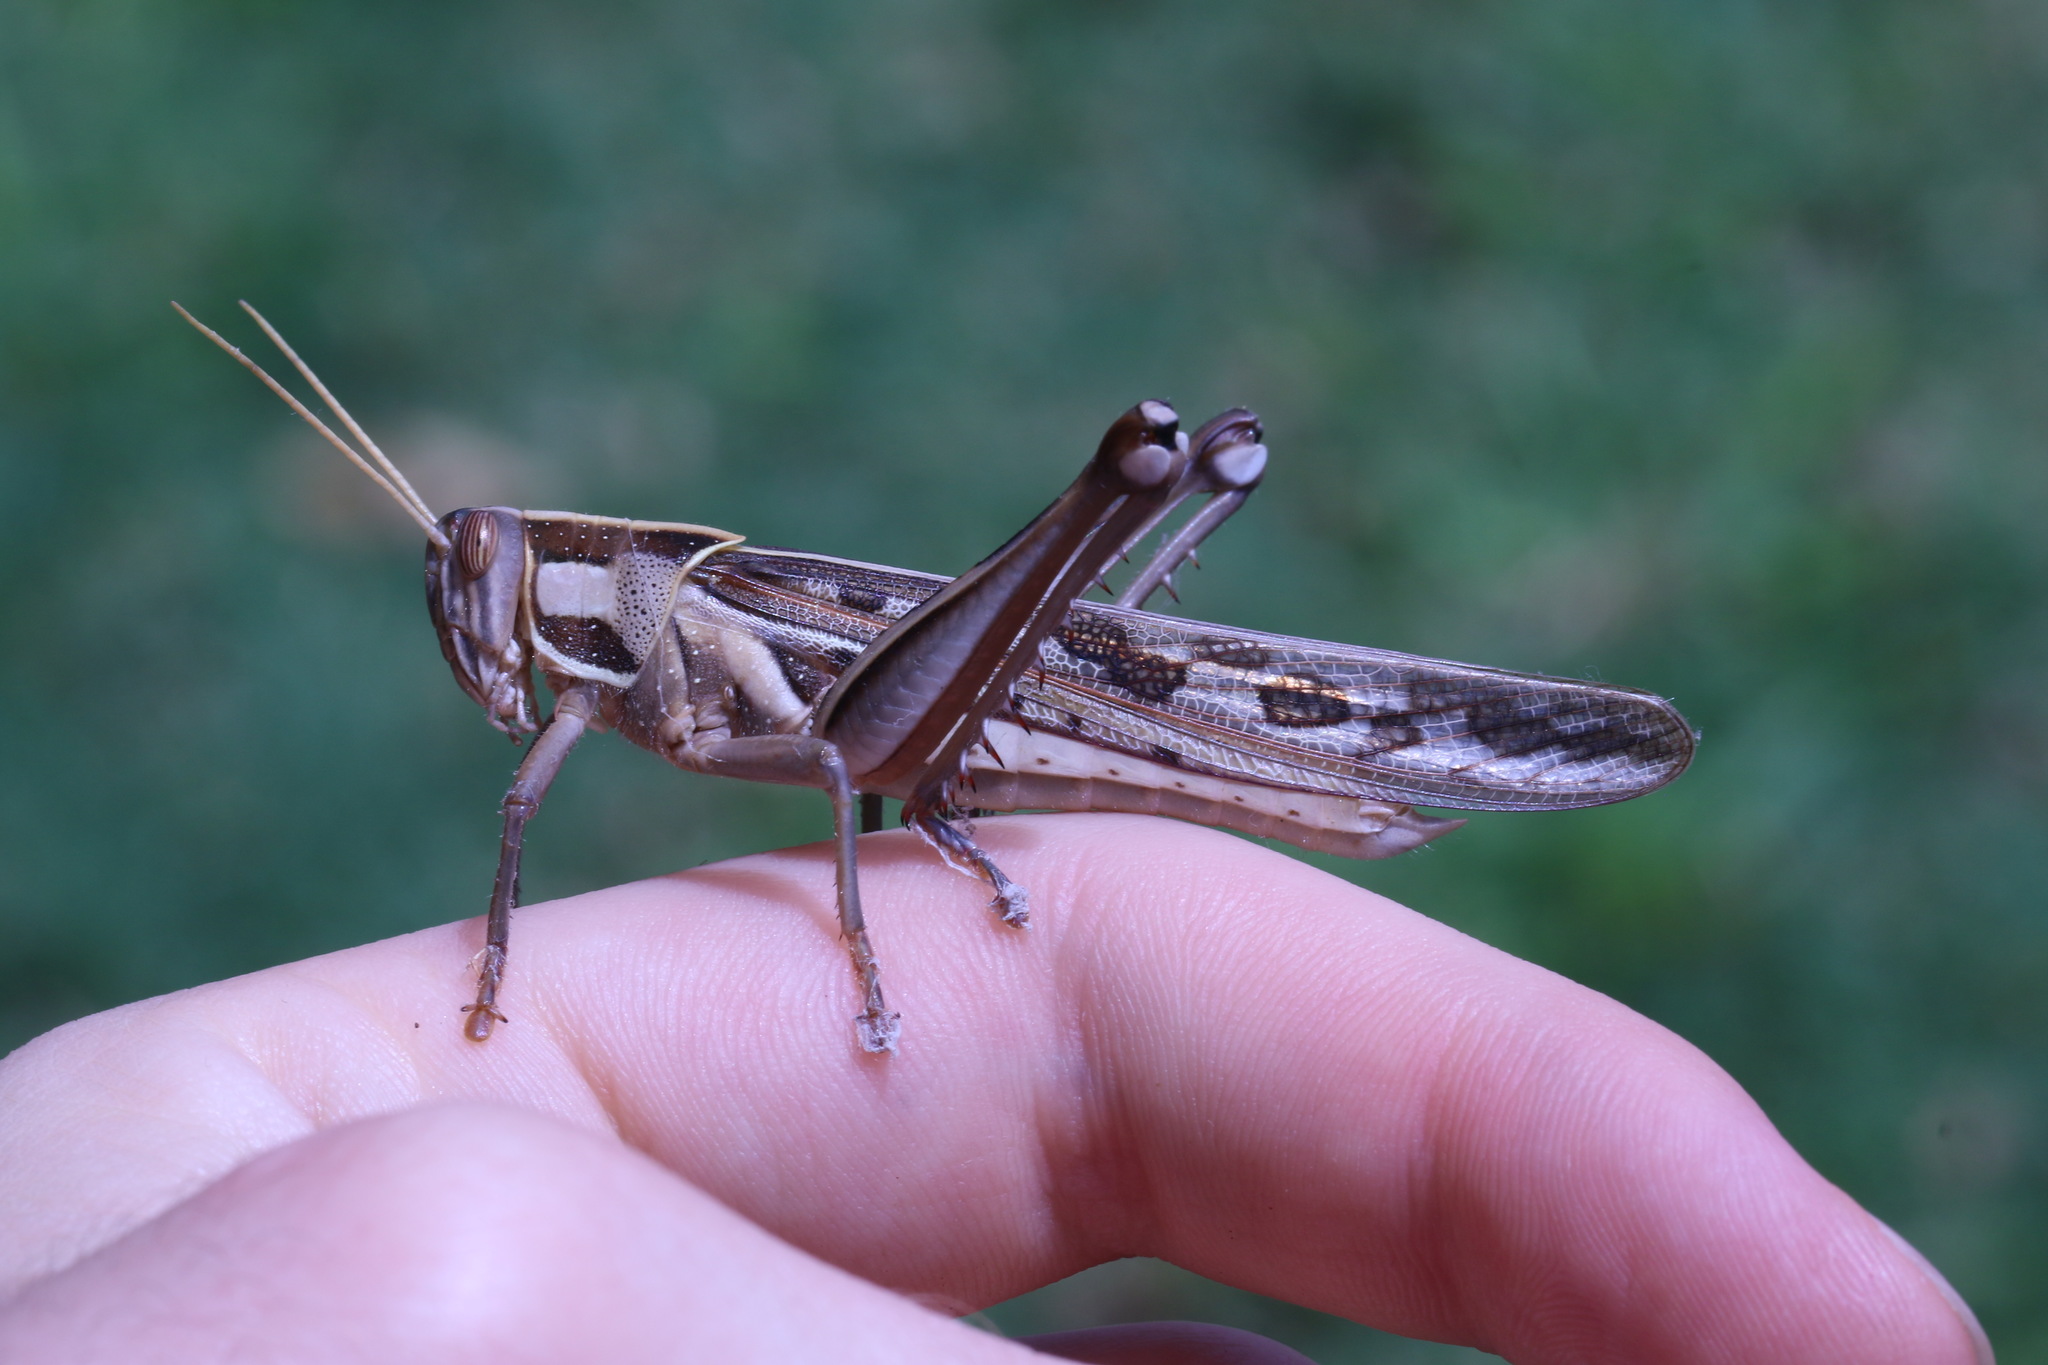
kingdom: Animalia
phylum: Arthropoda
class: Insecta
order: Orthoptera
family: Acrididae
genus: Cyrtacanthacris
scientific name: Cyrtacanthacris tatarica
